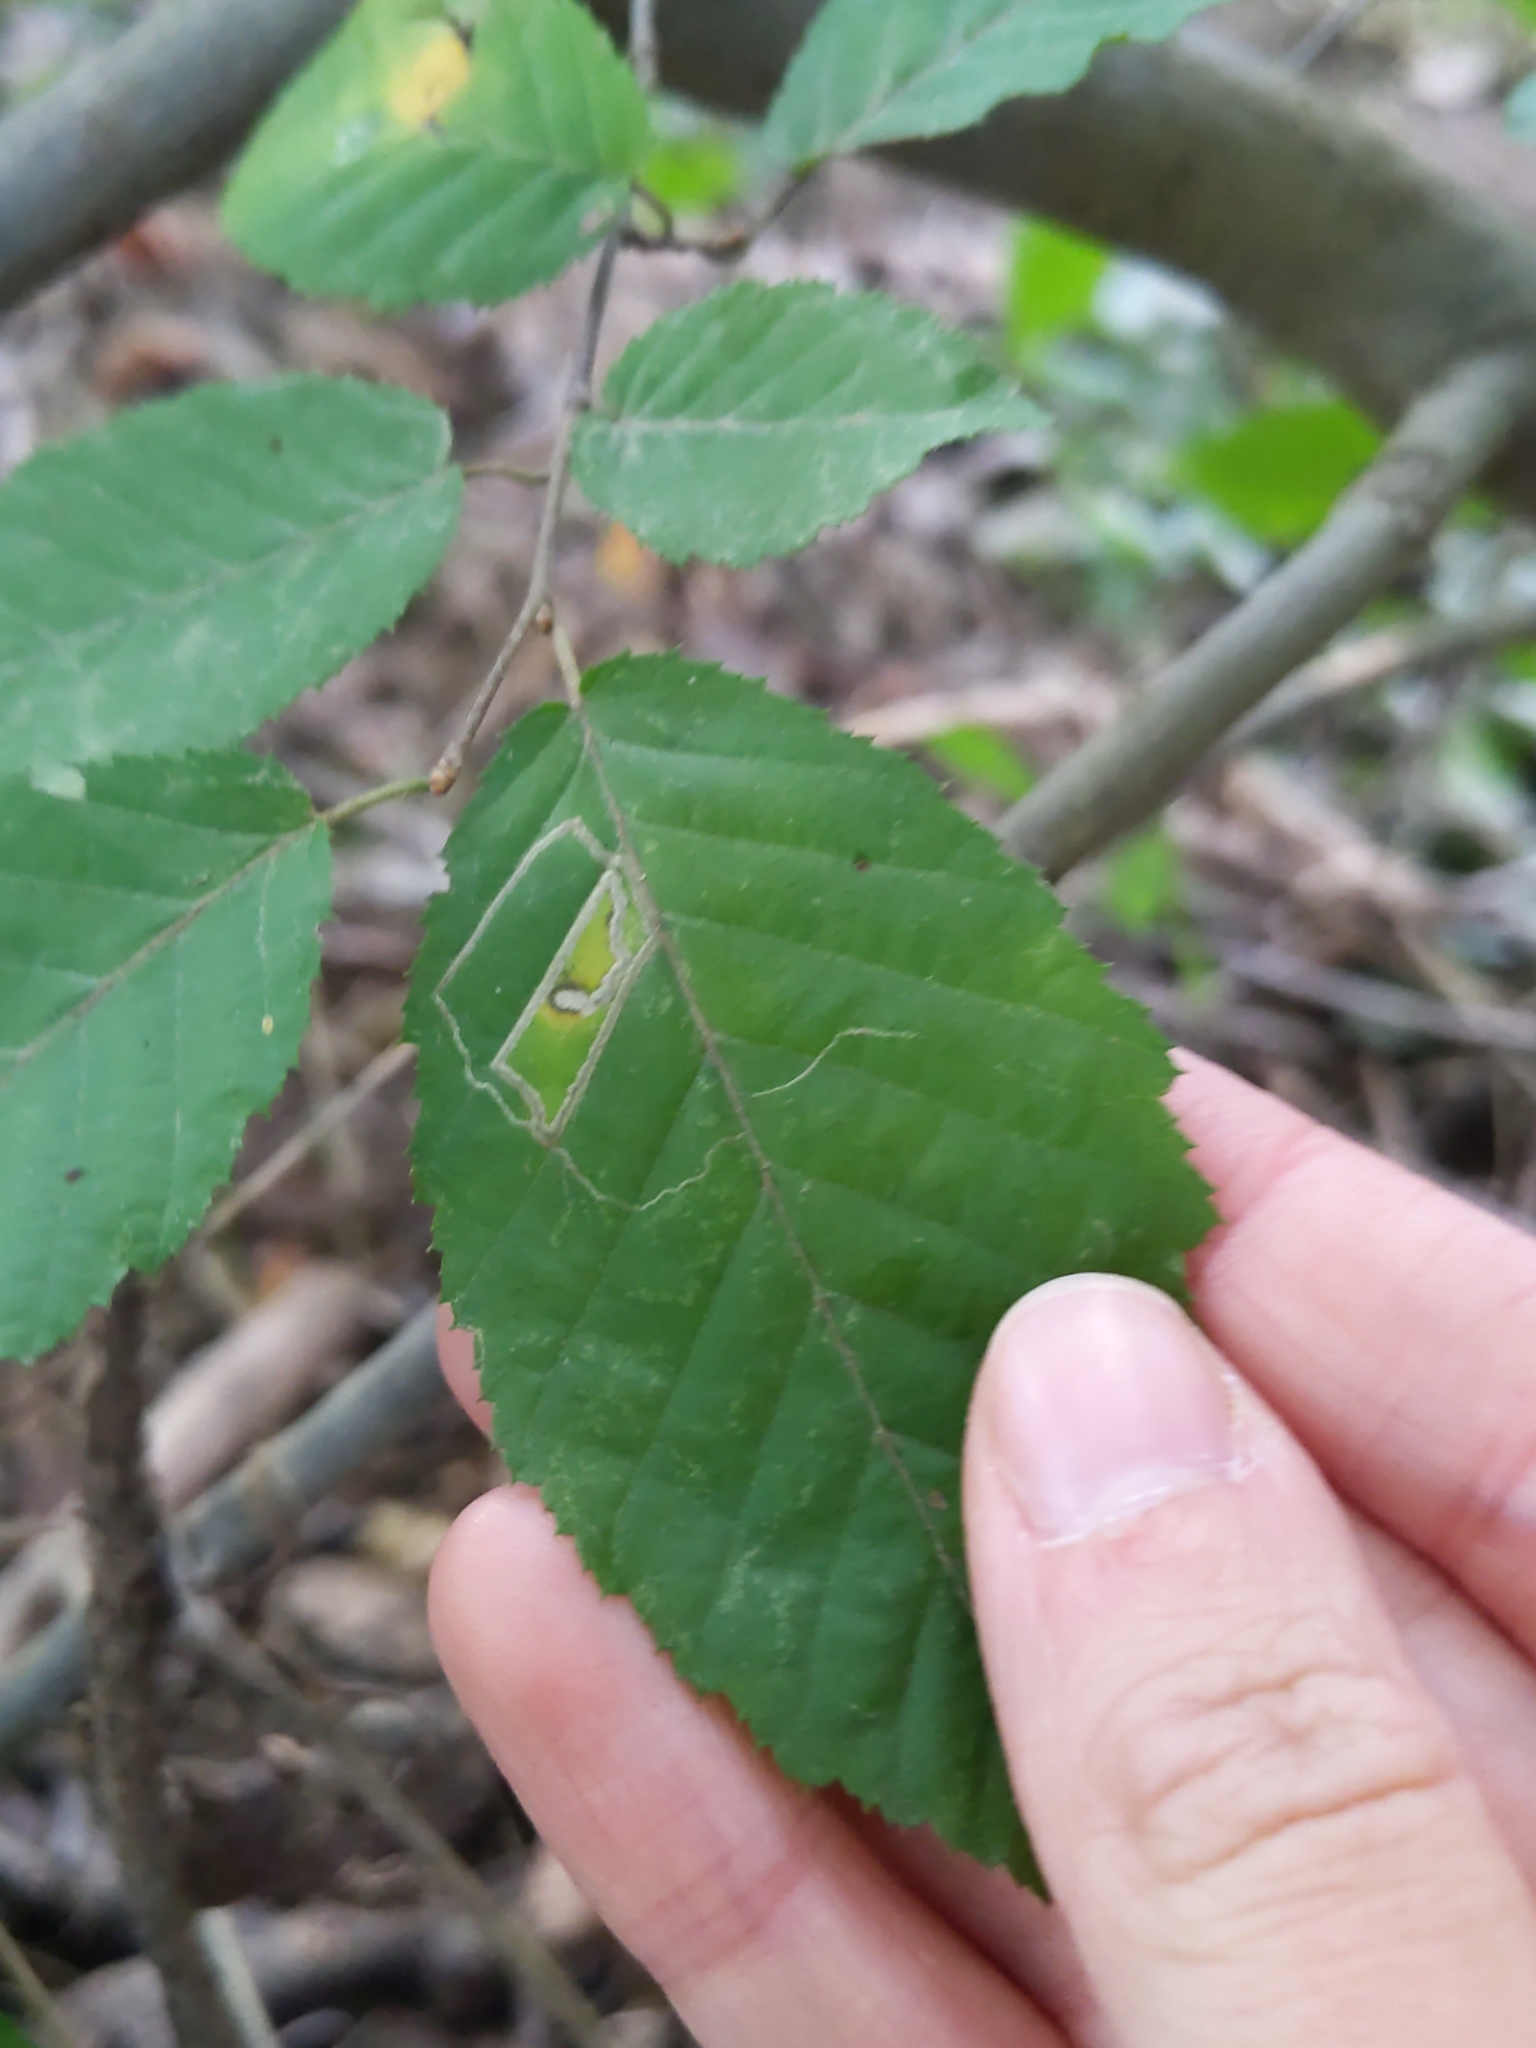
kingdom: Animalia
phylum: Arthropoda
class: Insecta
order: Lepidoptera
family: Nepticulidae
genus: Stigmella
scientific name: Stigmella
